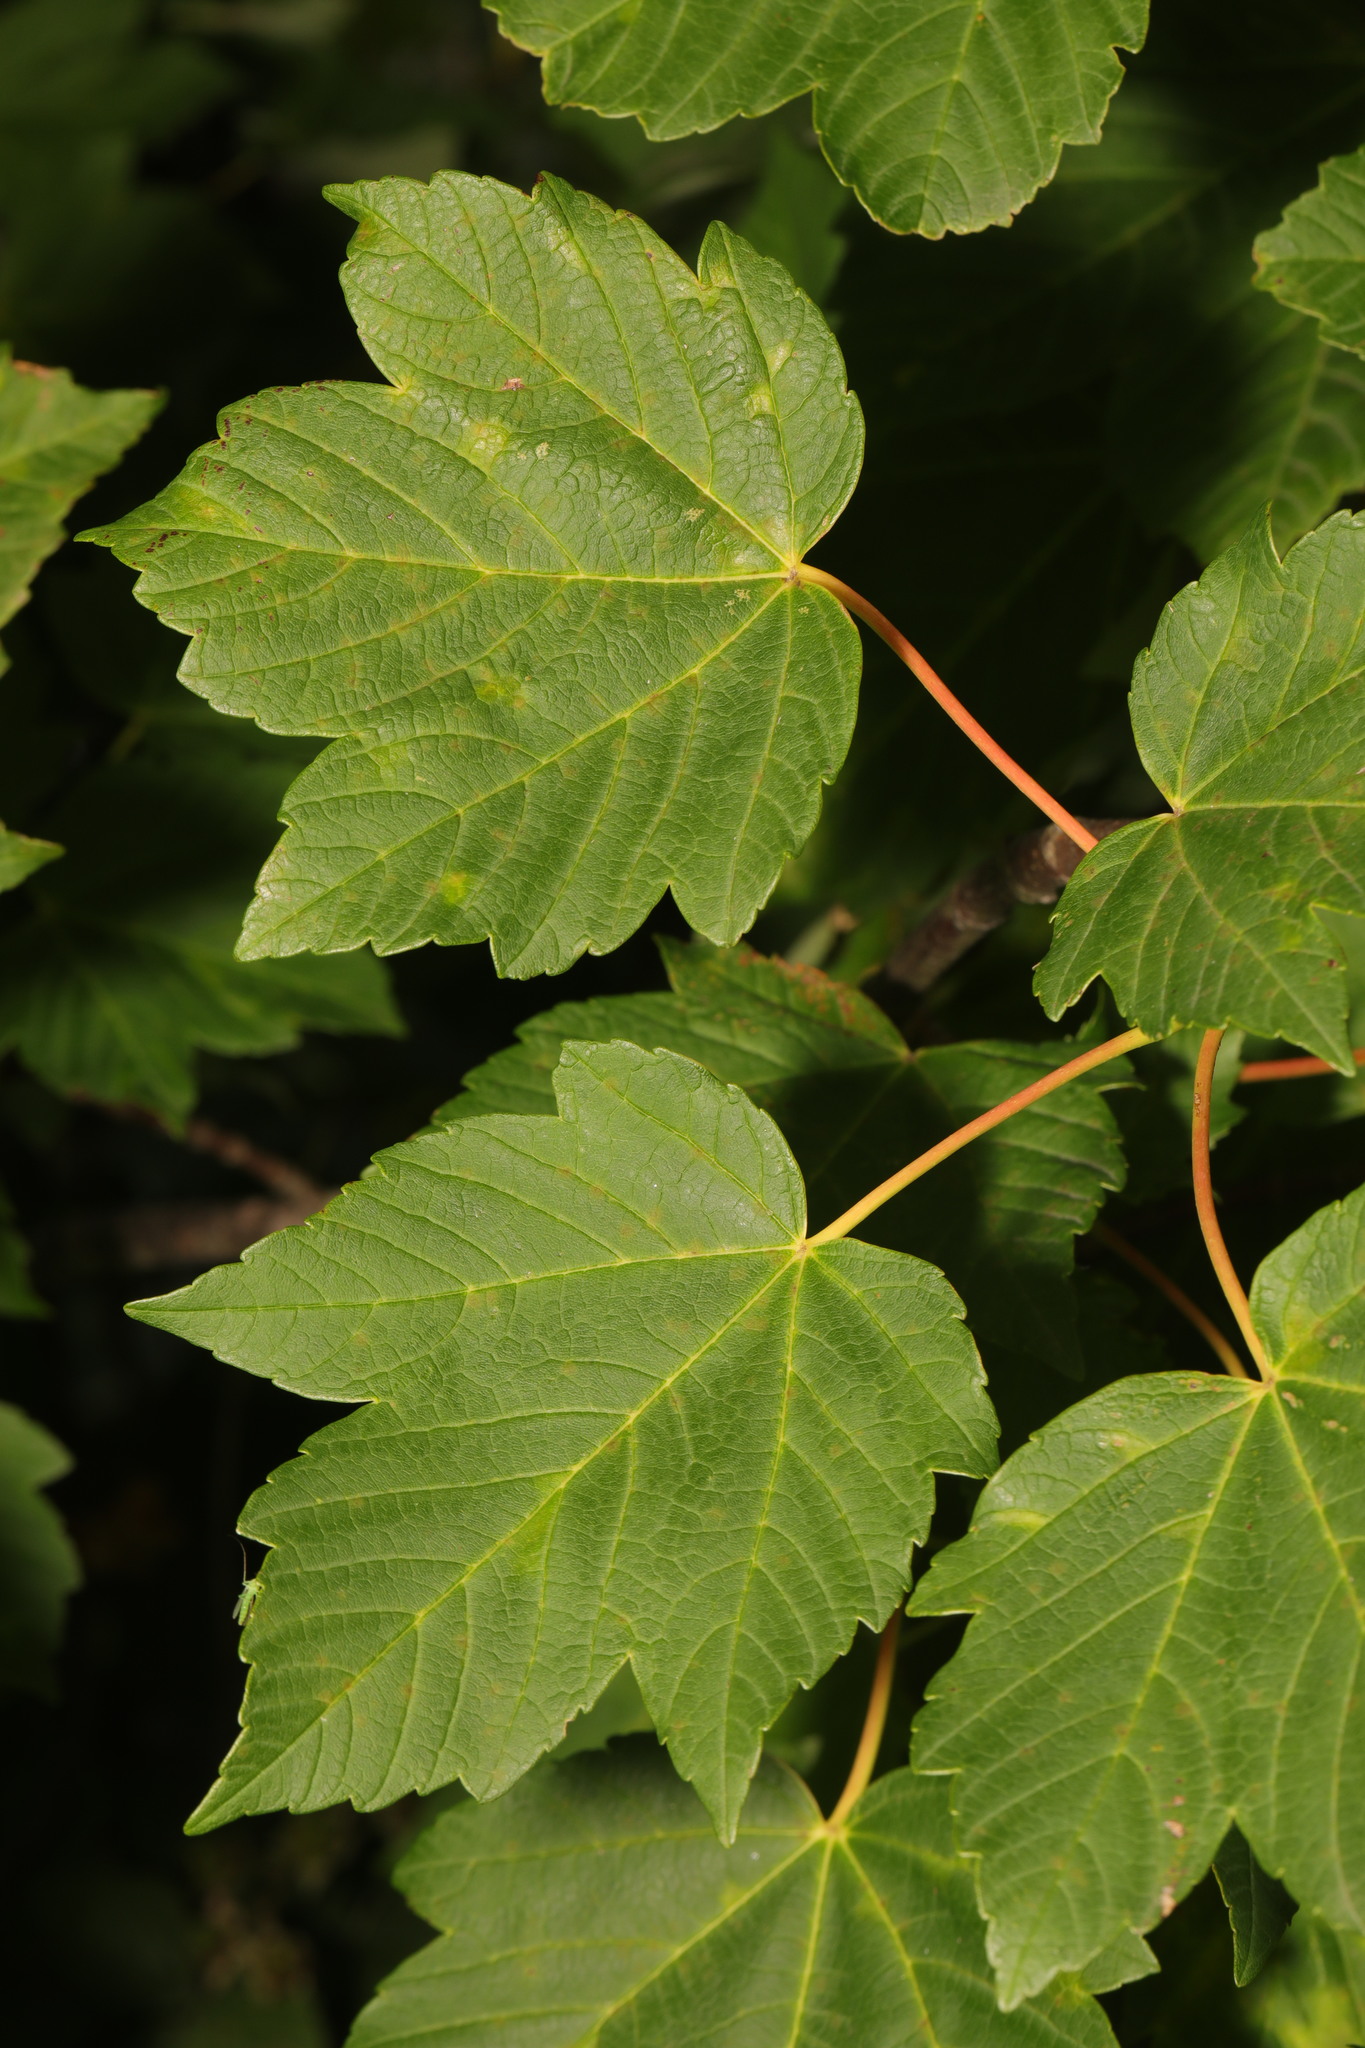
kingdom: Plantae
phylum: Tracheophyta
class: Magnoliopsida
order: Sapindales
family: Sapindaceae
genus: Acer
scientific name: Acer pseudoplatanus
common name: Sycamore
